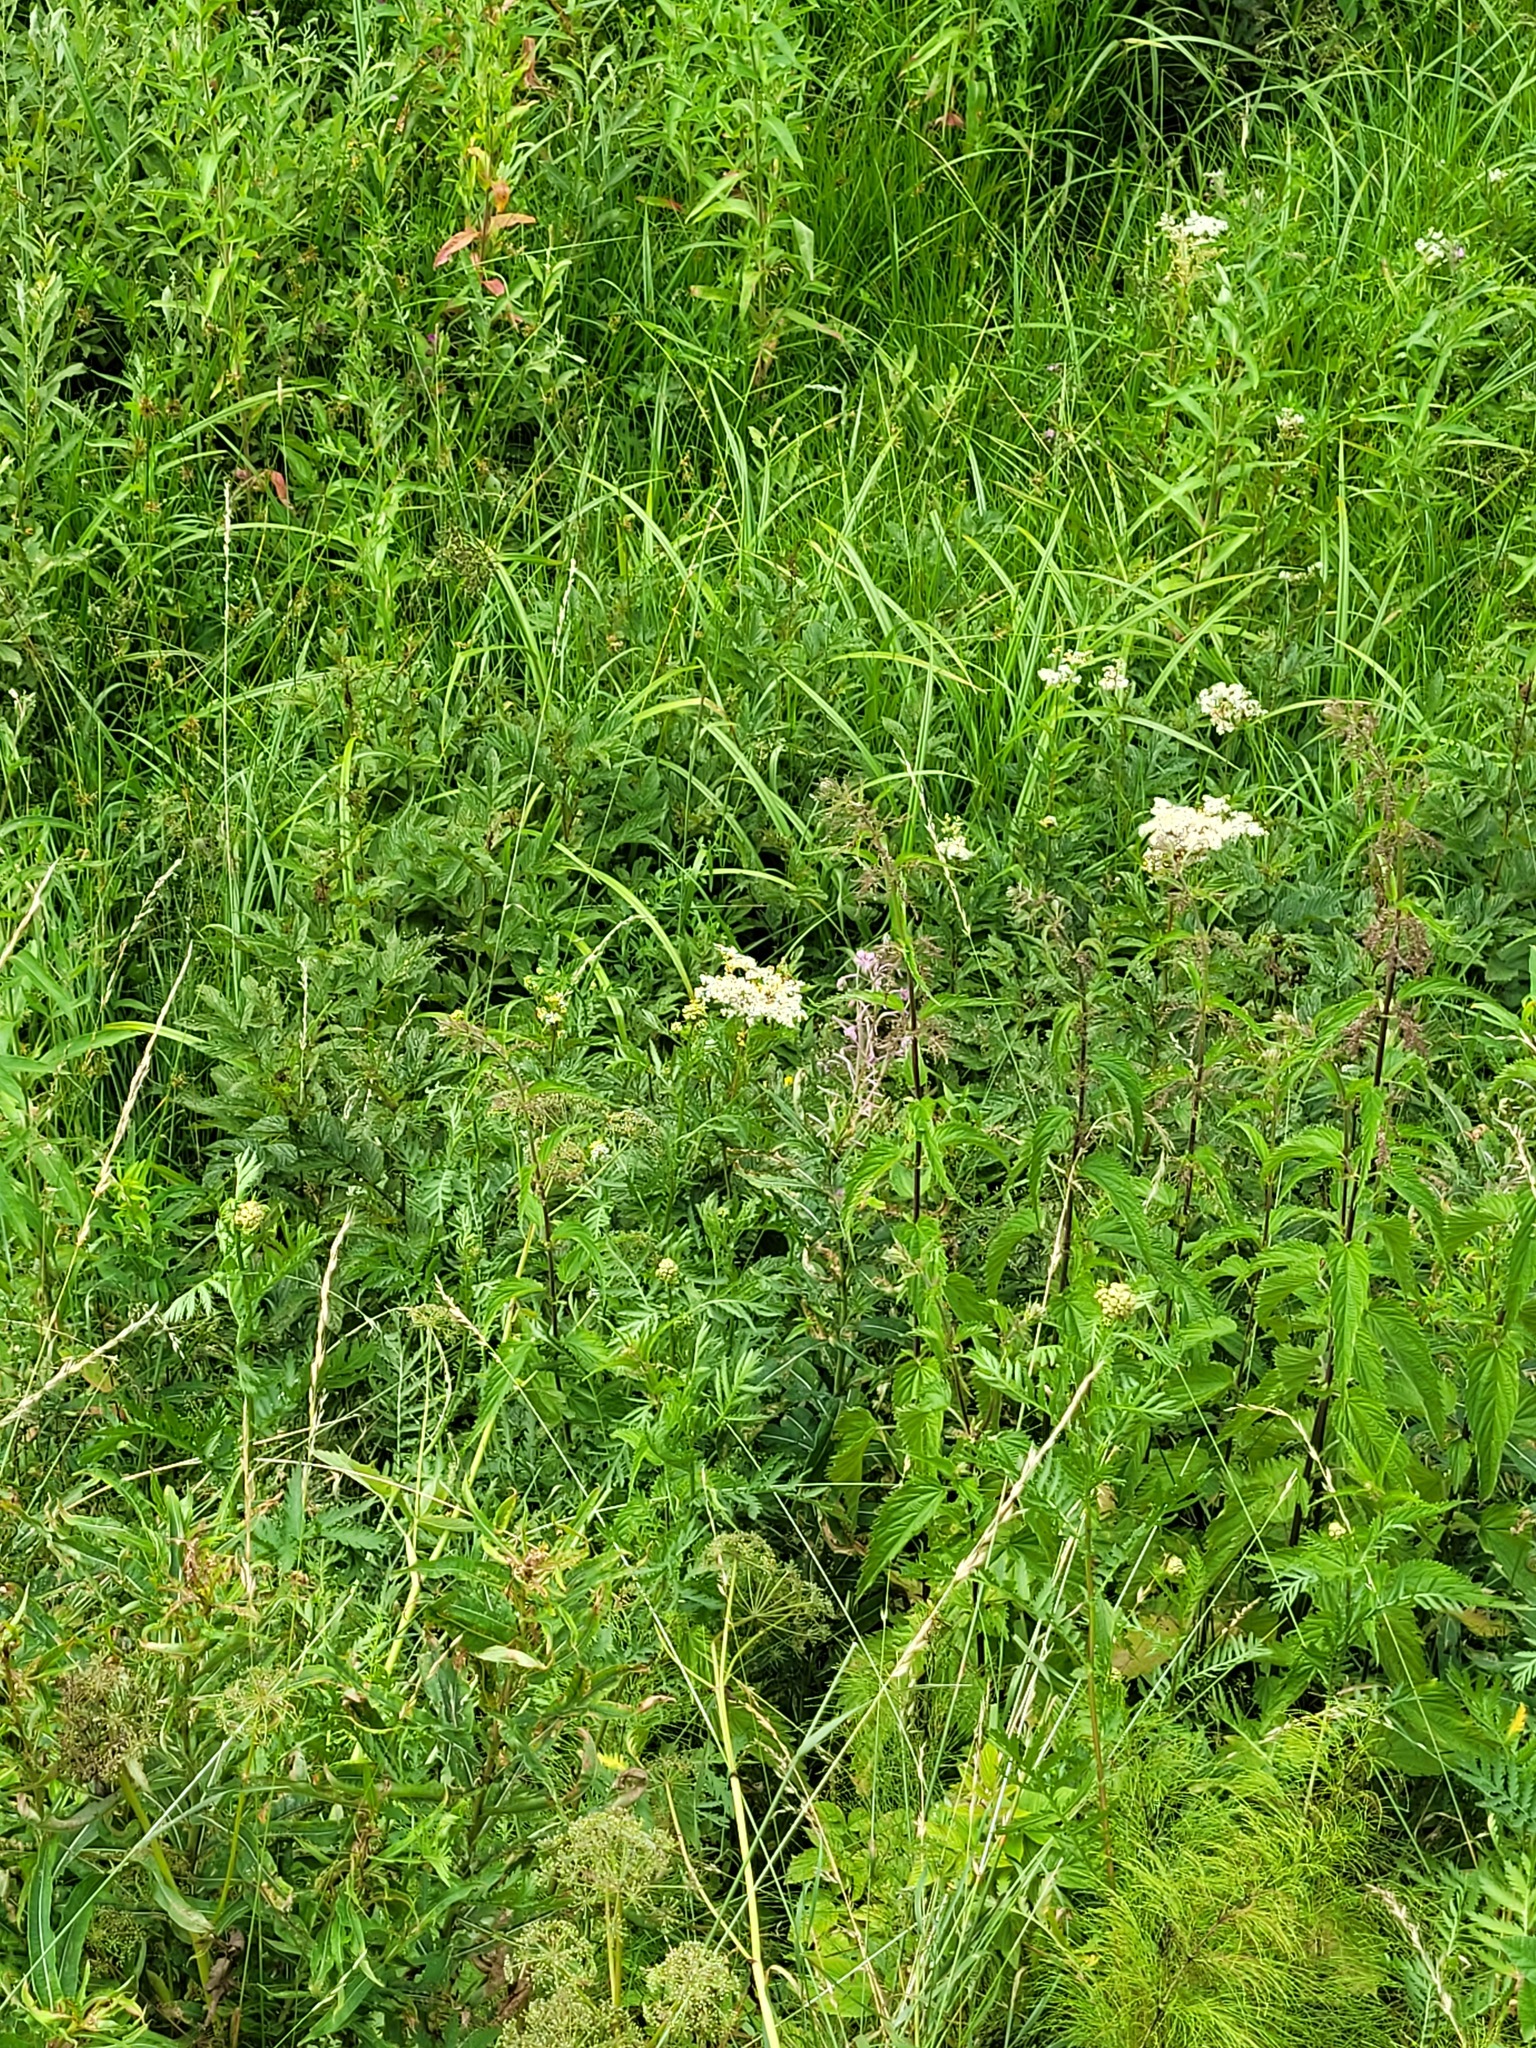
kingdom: Plantae
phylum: Tracheophyta
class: Magnoliopsida
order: Rosales
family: Rosaceae
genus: Filipendula
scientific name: Filipendula ulmaria
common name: Meadowsweet
